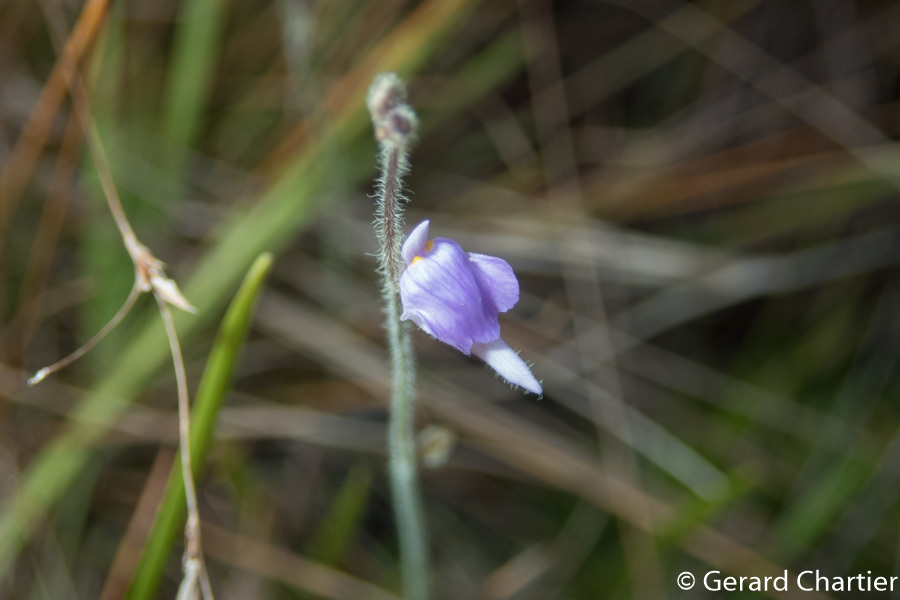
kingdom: Plantae
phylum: Tracheophyta
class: Magnoliopsida
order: Lamiales
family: Lentibulariaceae
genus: Utricularia
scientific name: Utricularia hirta
